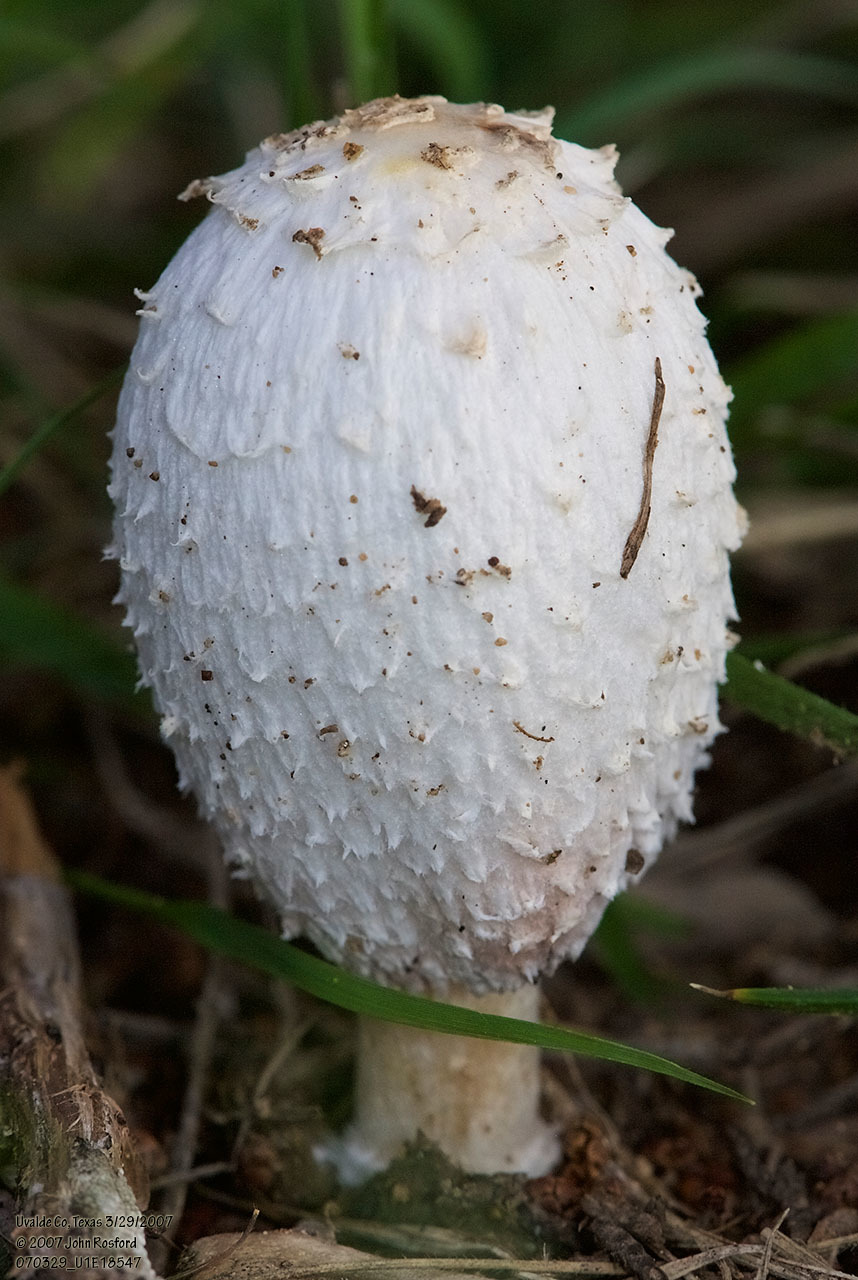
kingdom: Fungi
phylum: Basidiomycota
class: Agaricomycetes
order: Agaricales
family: Agaricaceae
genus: Coprinus
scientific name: Coprinus comatus
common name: Lawyer's wig
